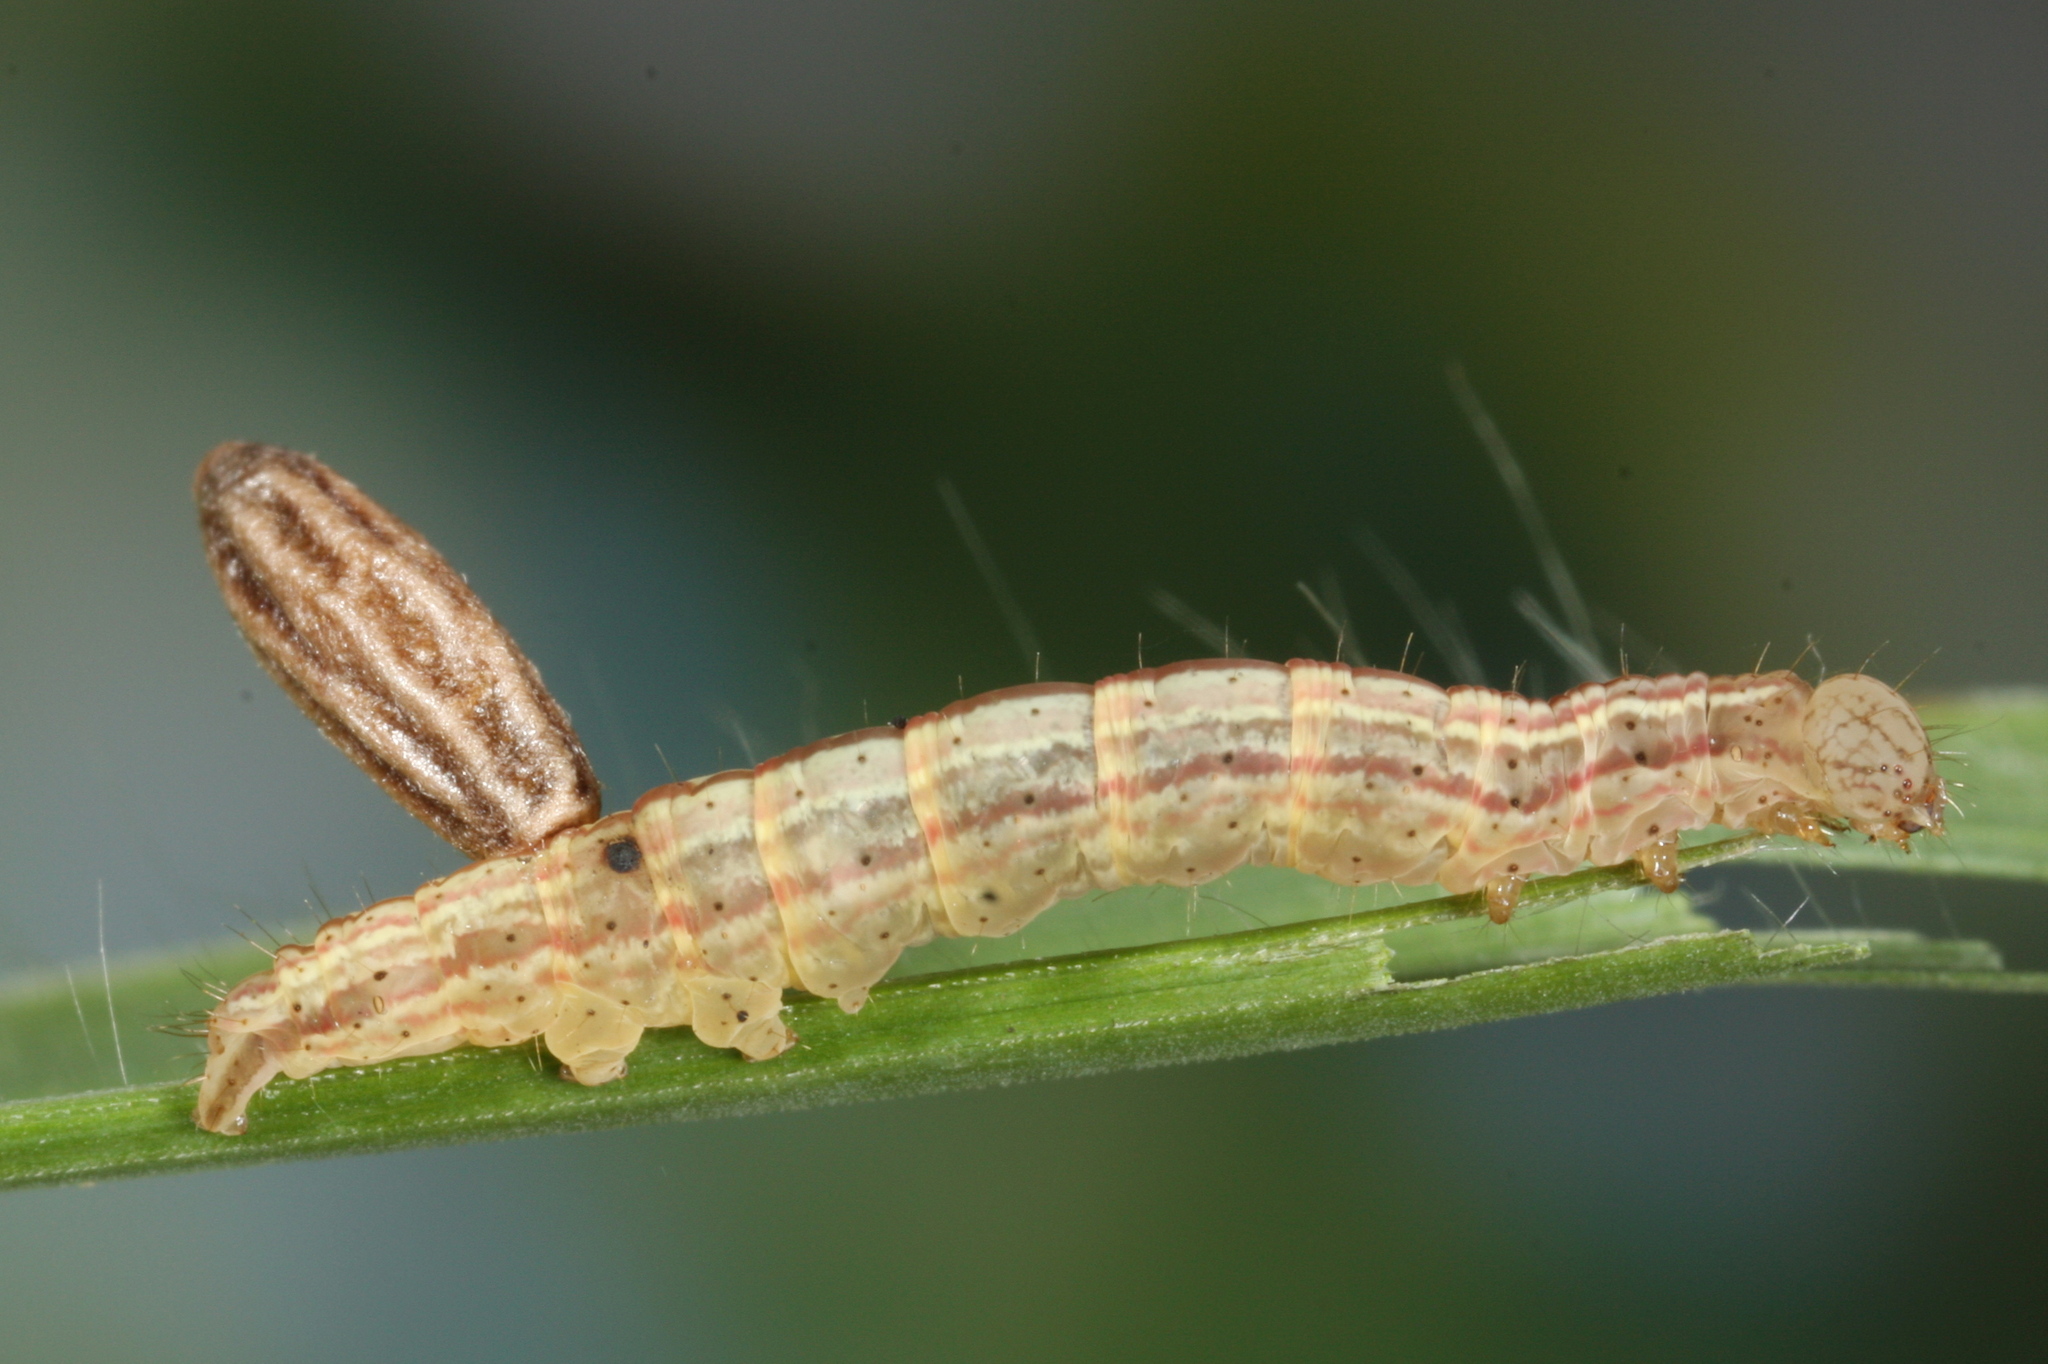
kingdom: Animalia
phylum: Arthropoda
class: Insecta
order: Lepidoptera
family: Noctuidae
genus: Deltote
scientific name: Deltote pygarga
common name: Marbled white spot
